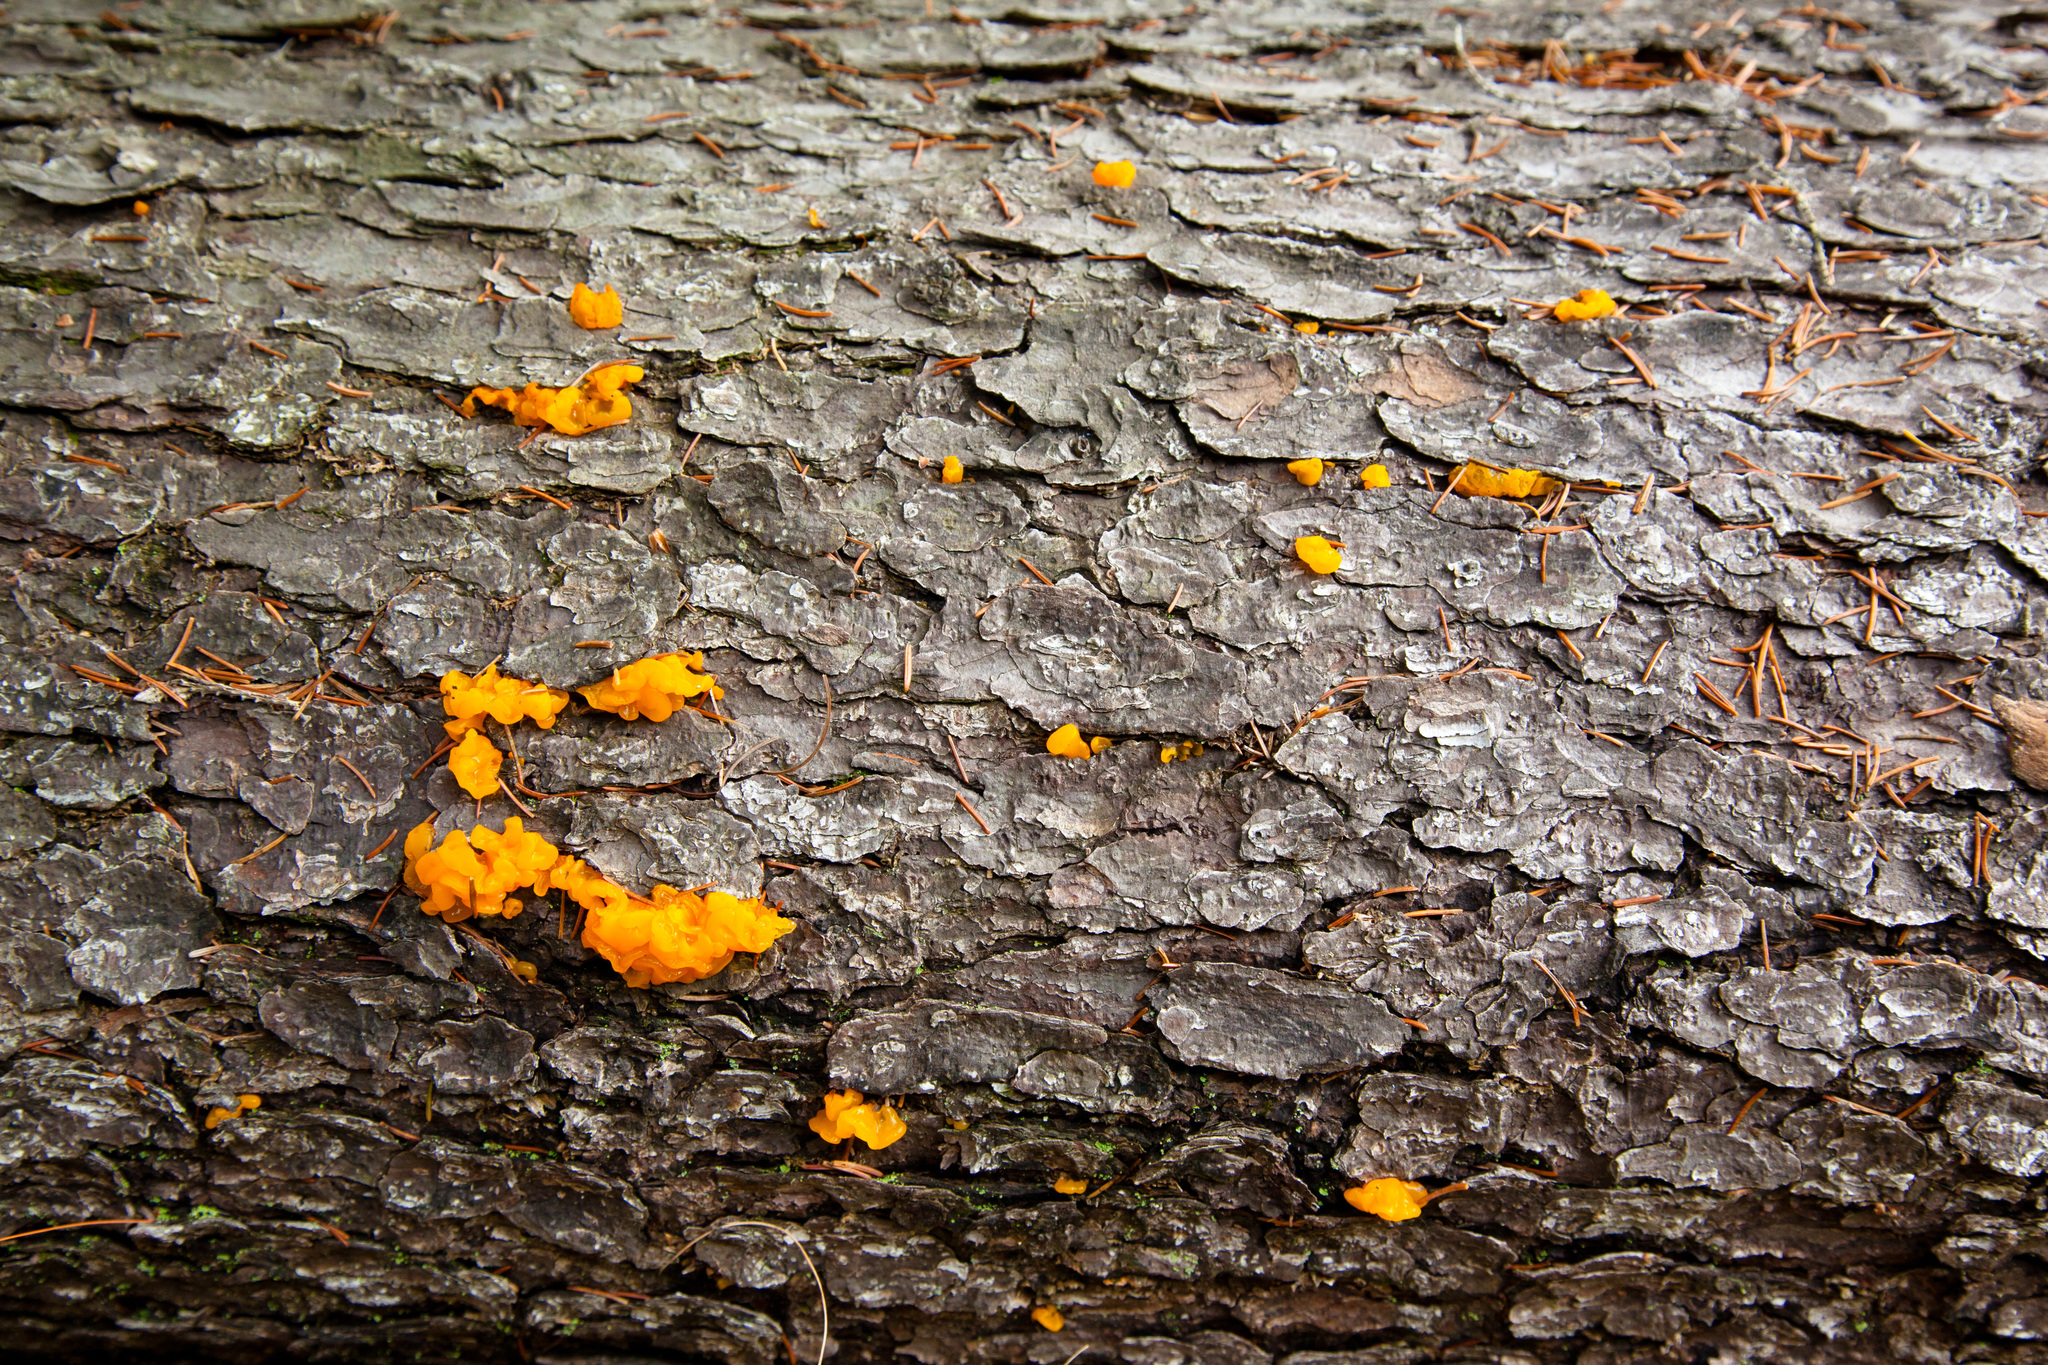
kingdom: Fungi
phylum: Basidiomycota
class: Tremellomycetes
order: Tremellales
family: Tremellaceae
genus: Tremella
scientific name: Tremella mesenterica
